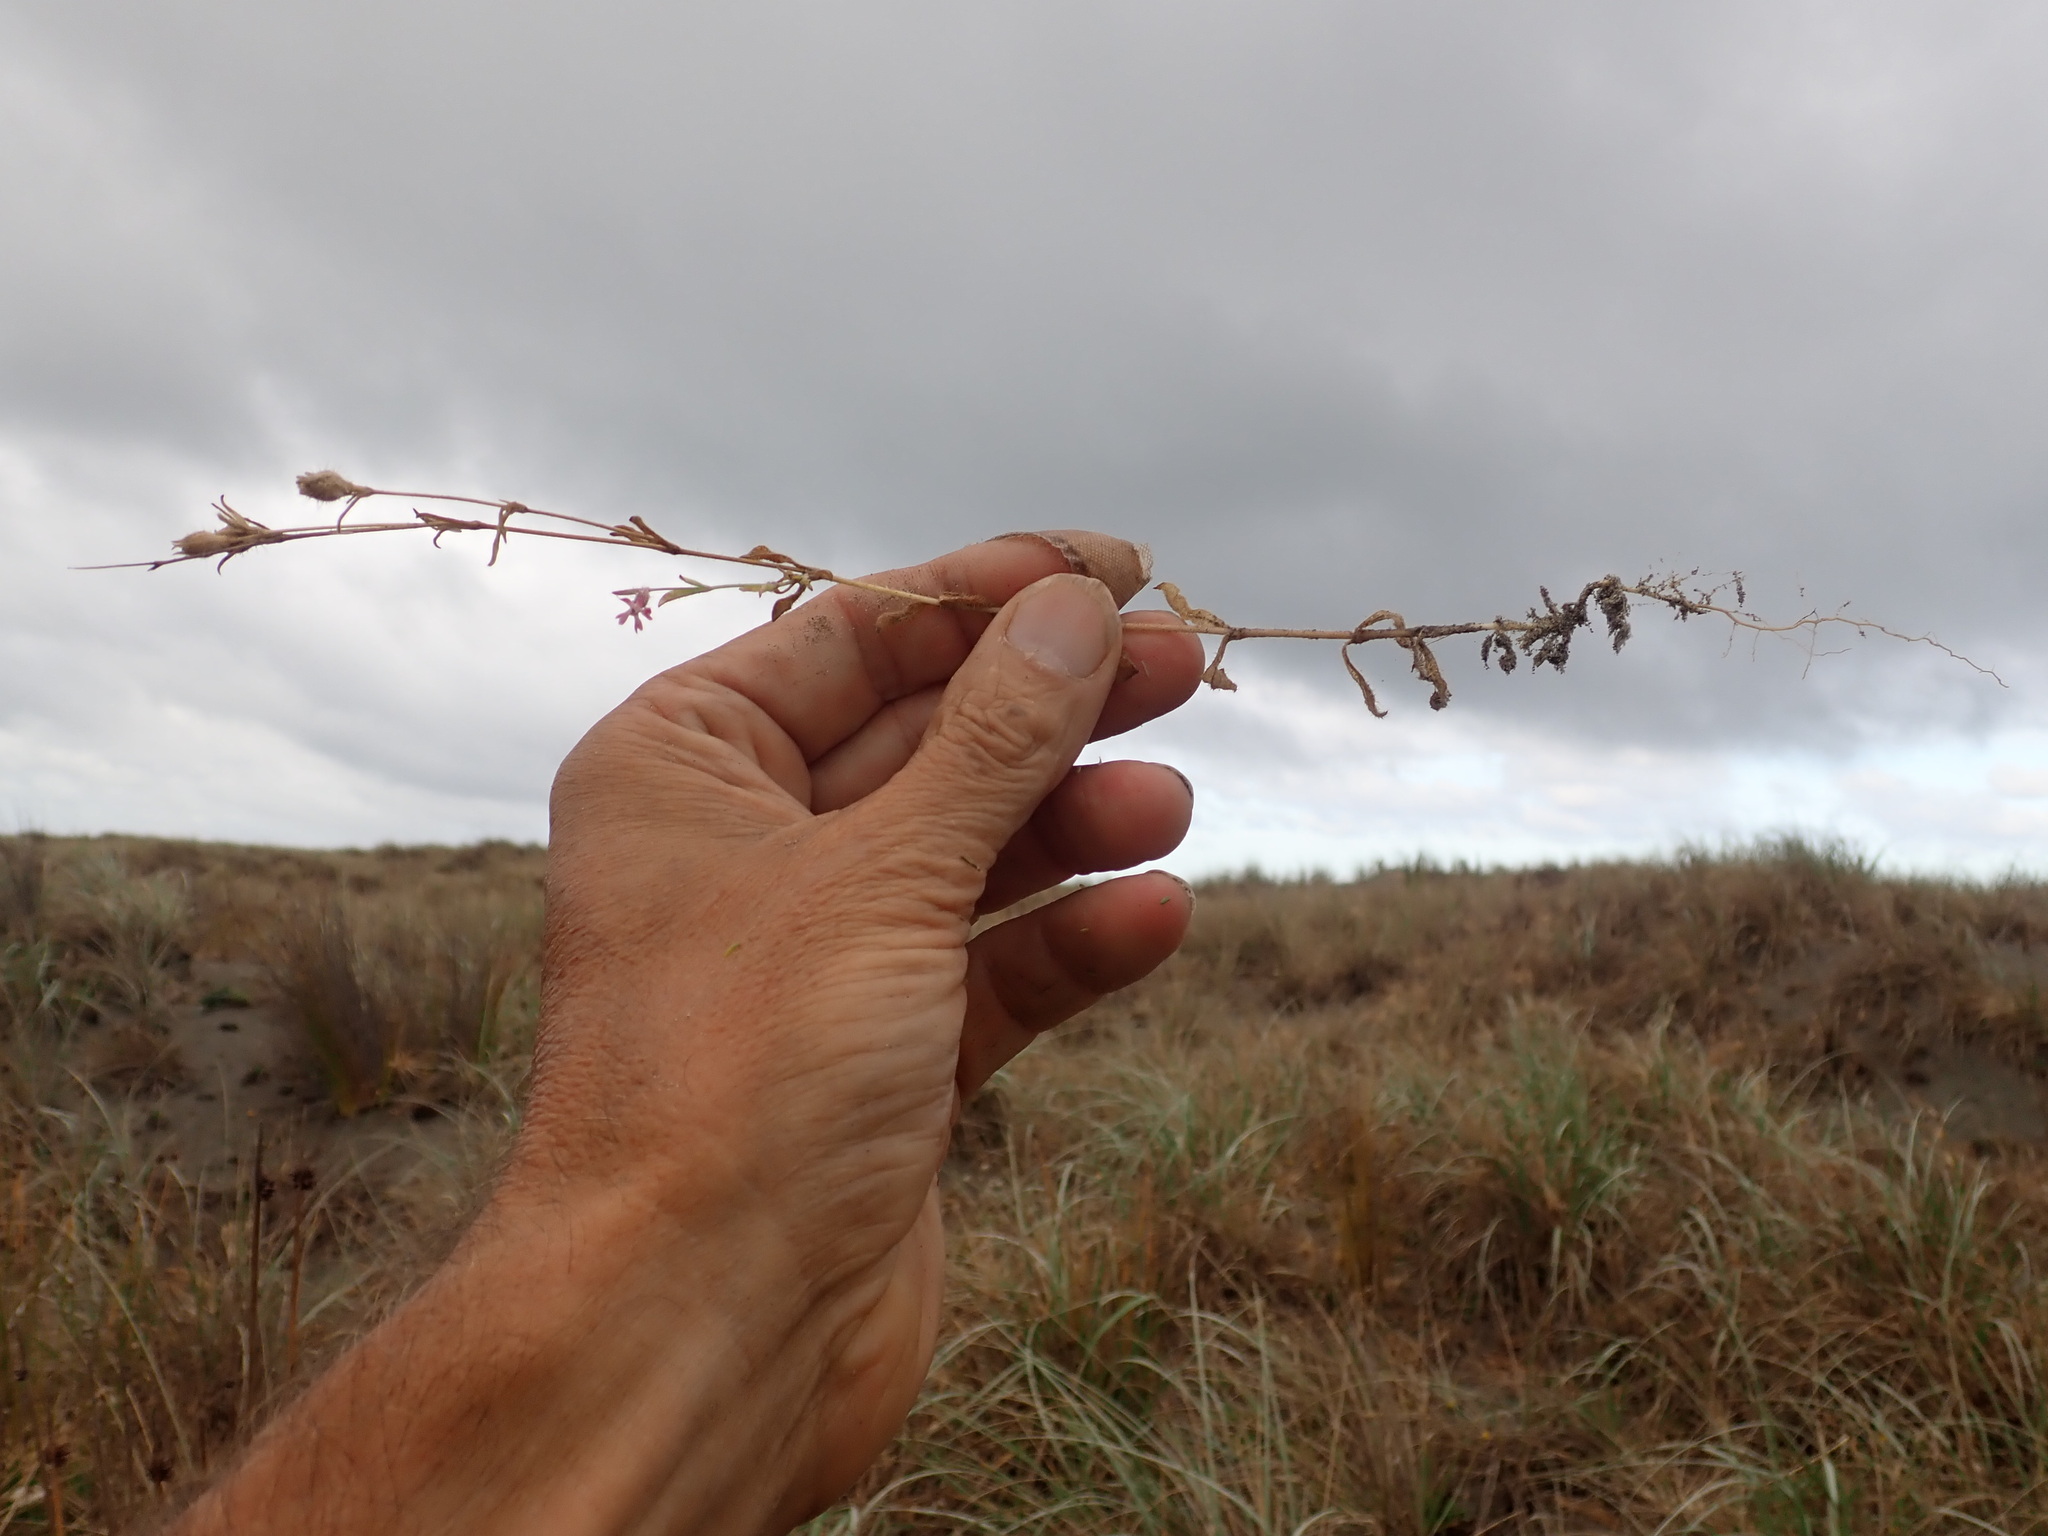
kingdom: Plantae
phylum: Tracheophyta
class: Magnoliopsida
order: Caryophyllales
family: Caryophyllaceae
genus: Silene
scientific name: Silene gallica
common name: Small-flowered catchfly
